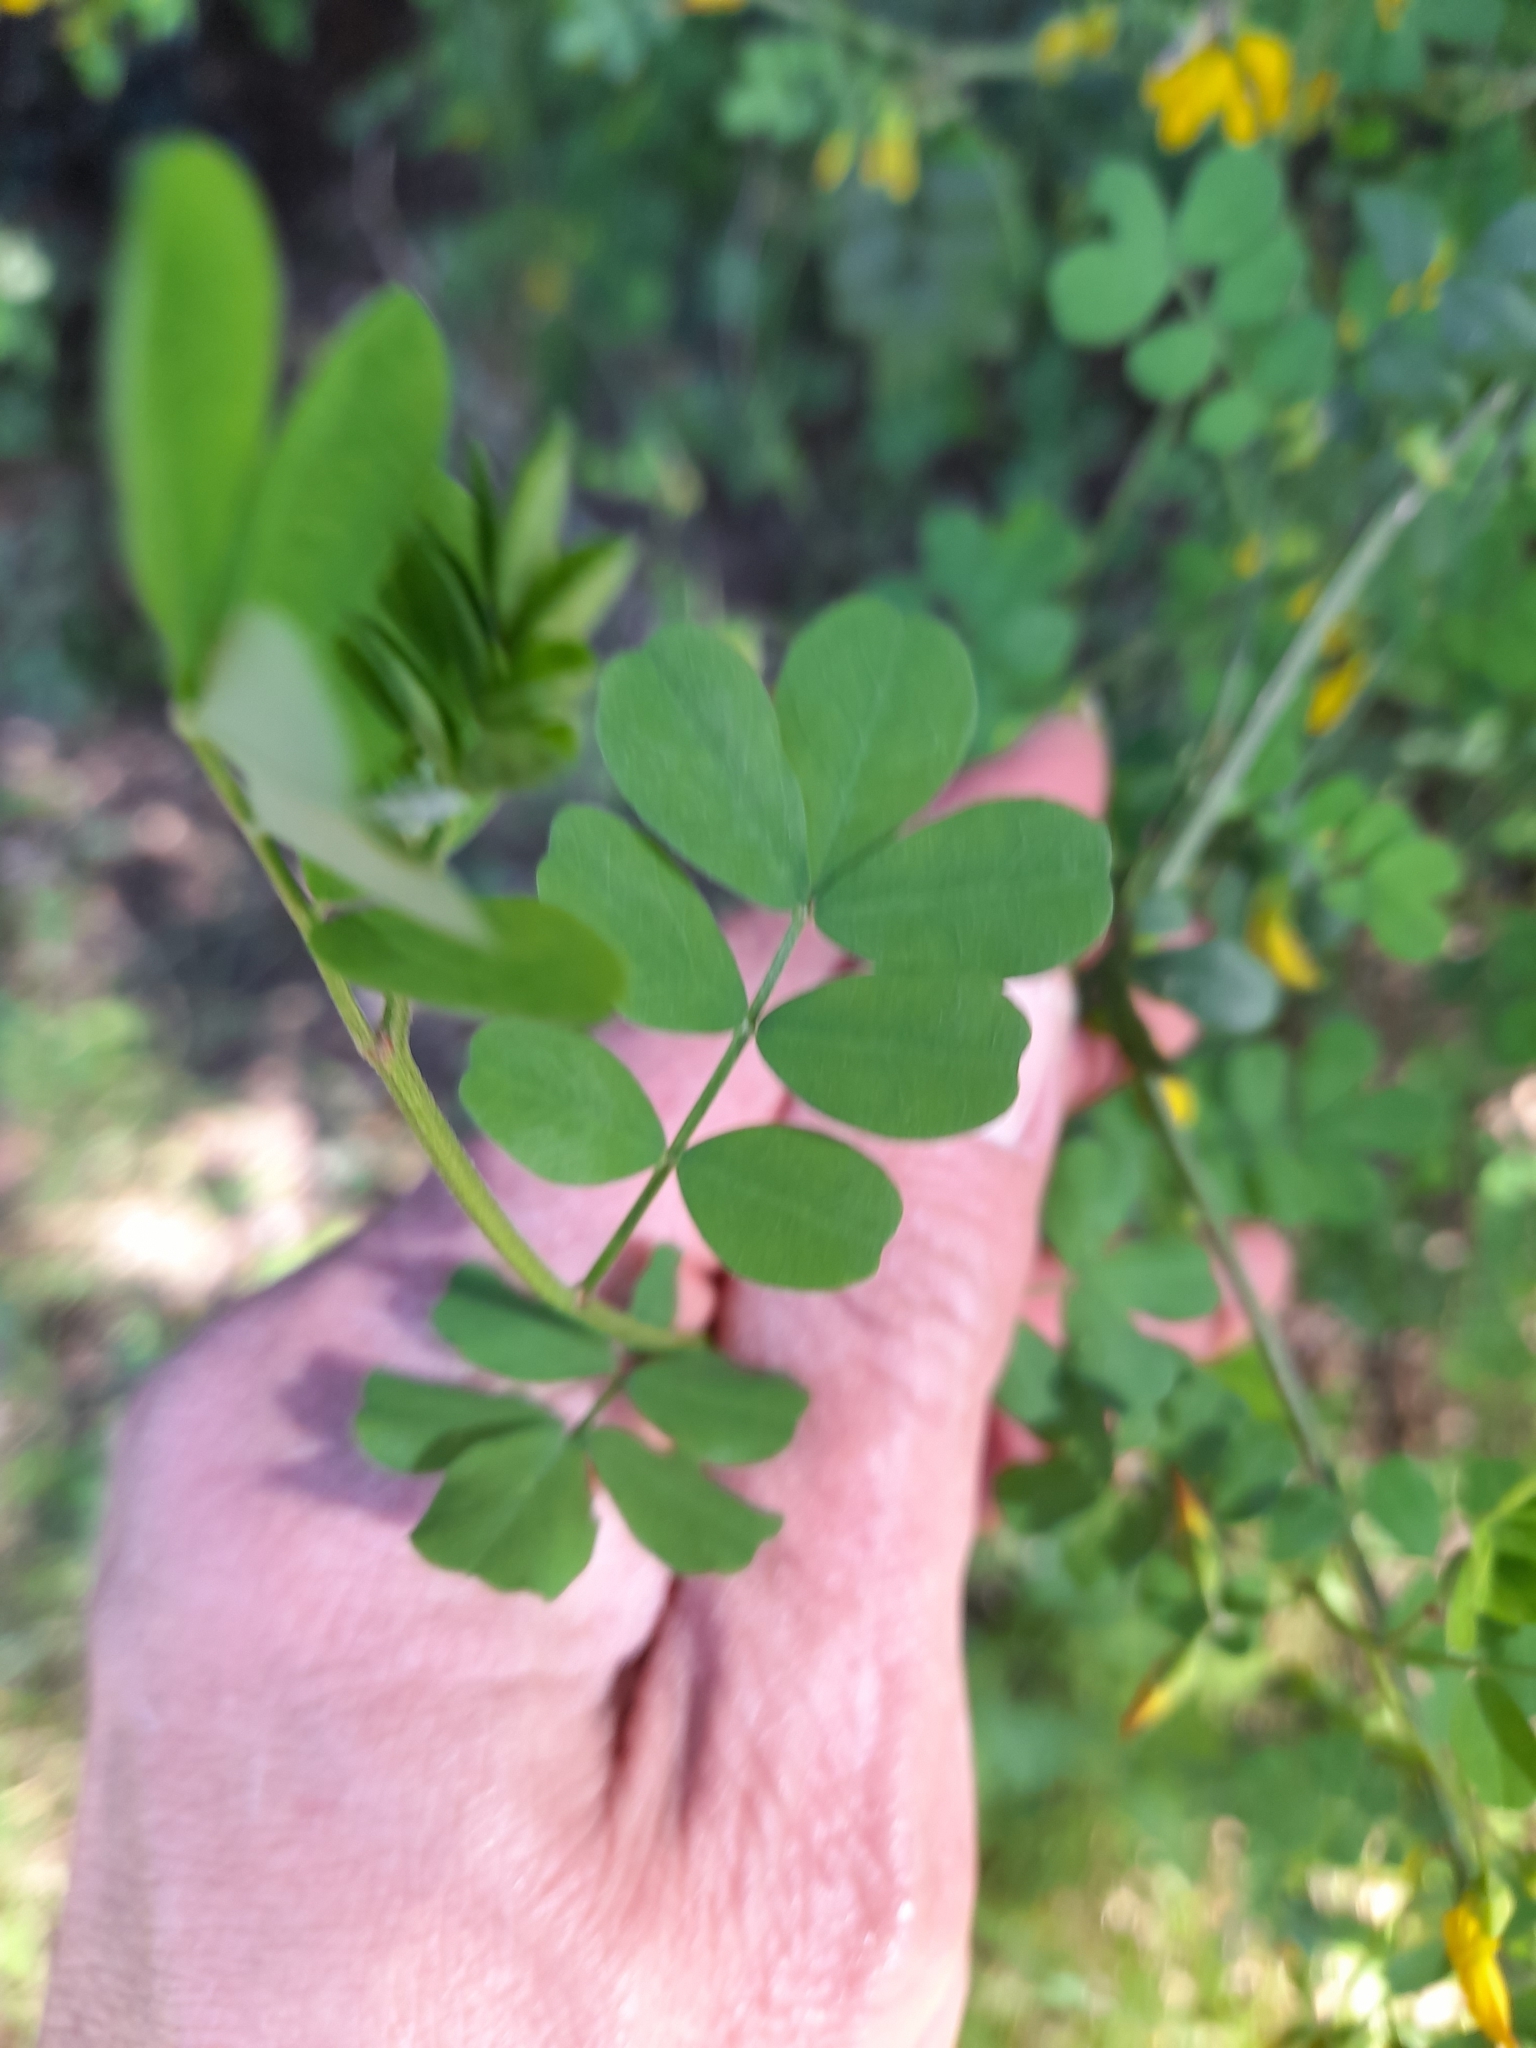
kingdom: Plantae
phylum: Tracheophyta
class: Magnoliopsida
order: Fabales
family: Fabaceae
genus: Hippocrepis
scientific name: Hippocrepis emerus
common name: Scorpion senna
